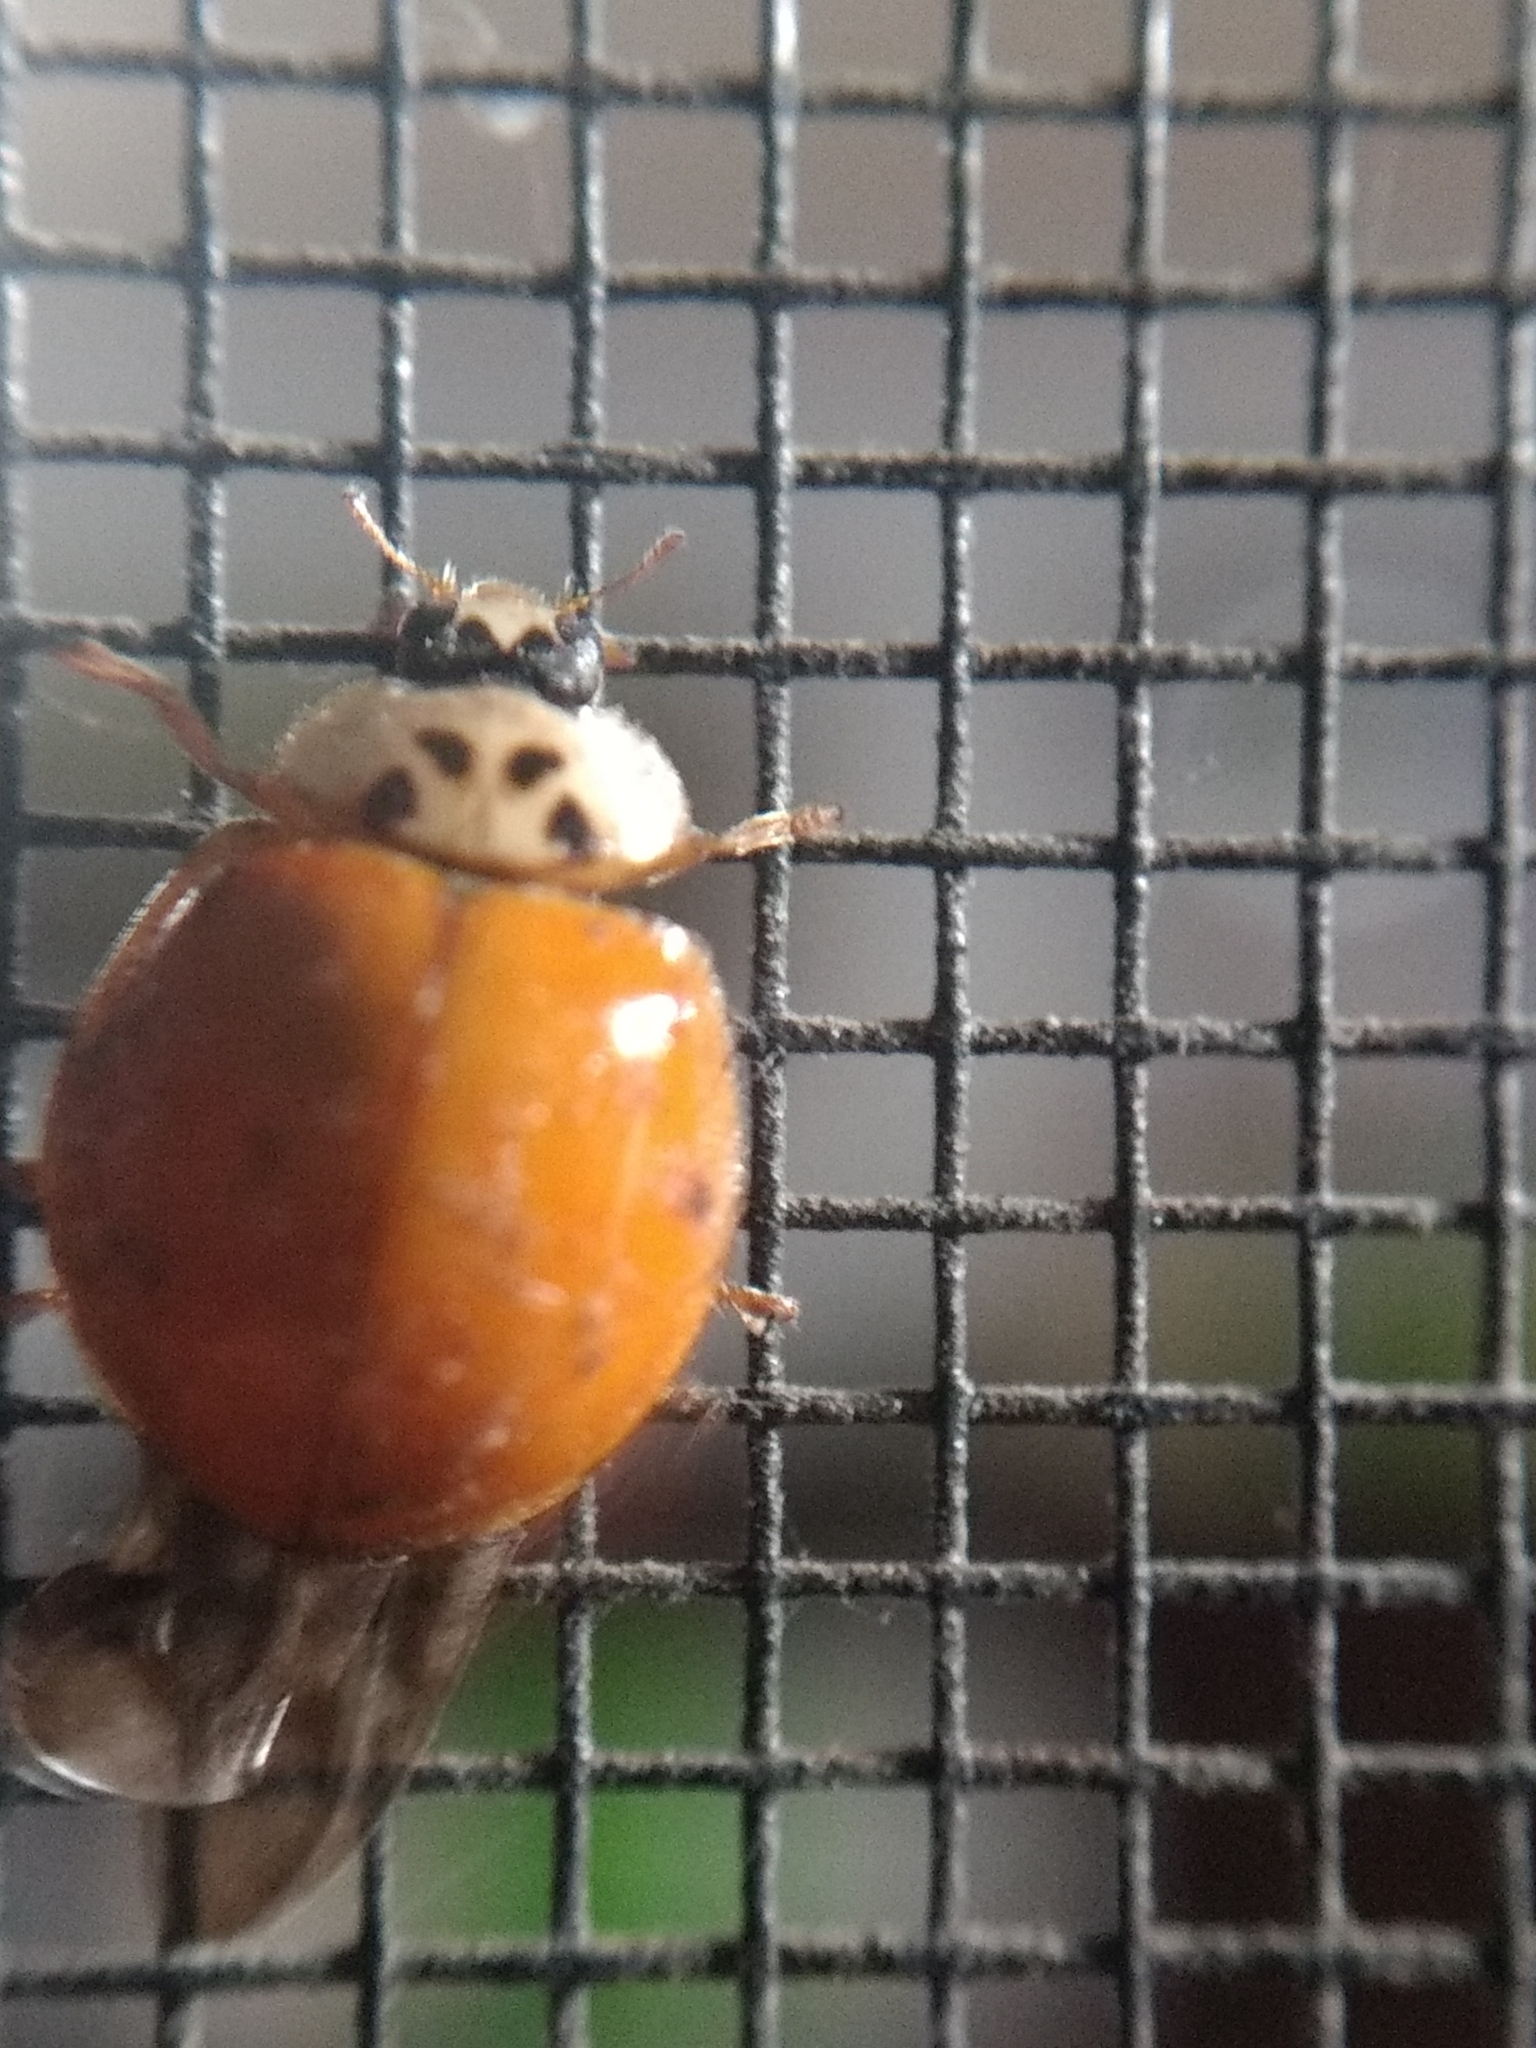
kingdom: Animalia
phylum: Arthropoda
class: Insecta
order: Coleoptera
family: Coccinellidae
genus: Harmonia
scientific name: Harmonia axyridis
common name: Harlequin ladybird
